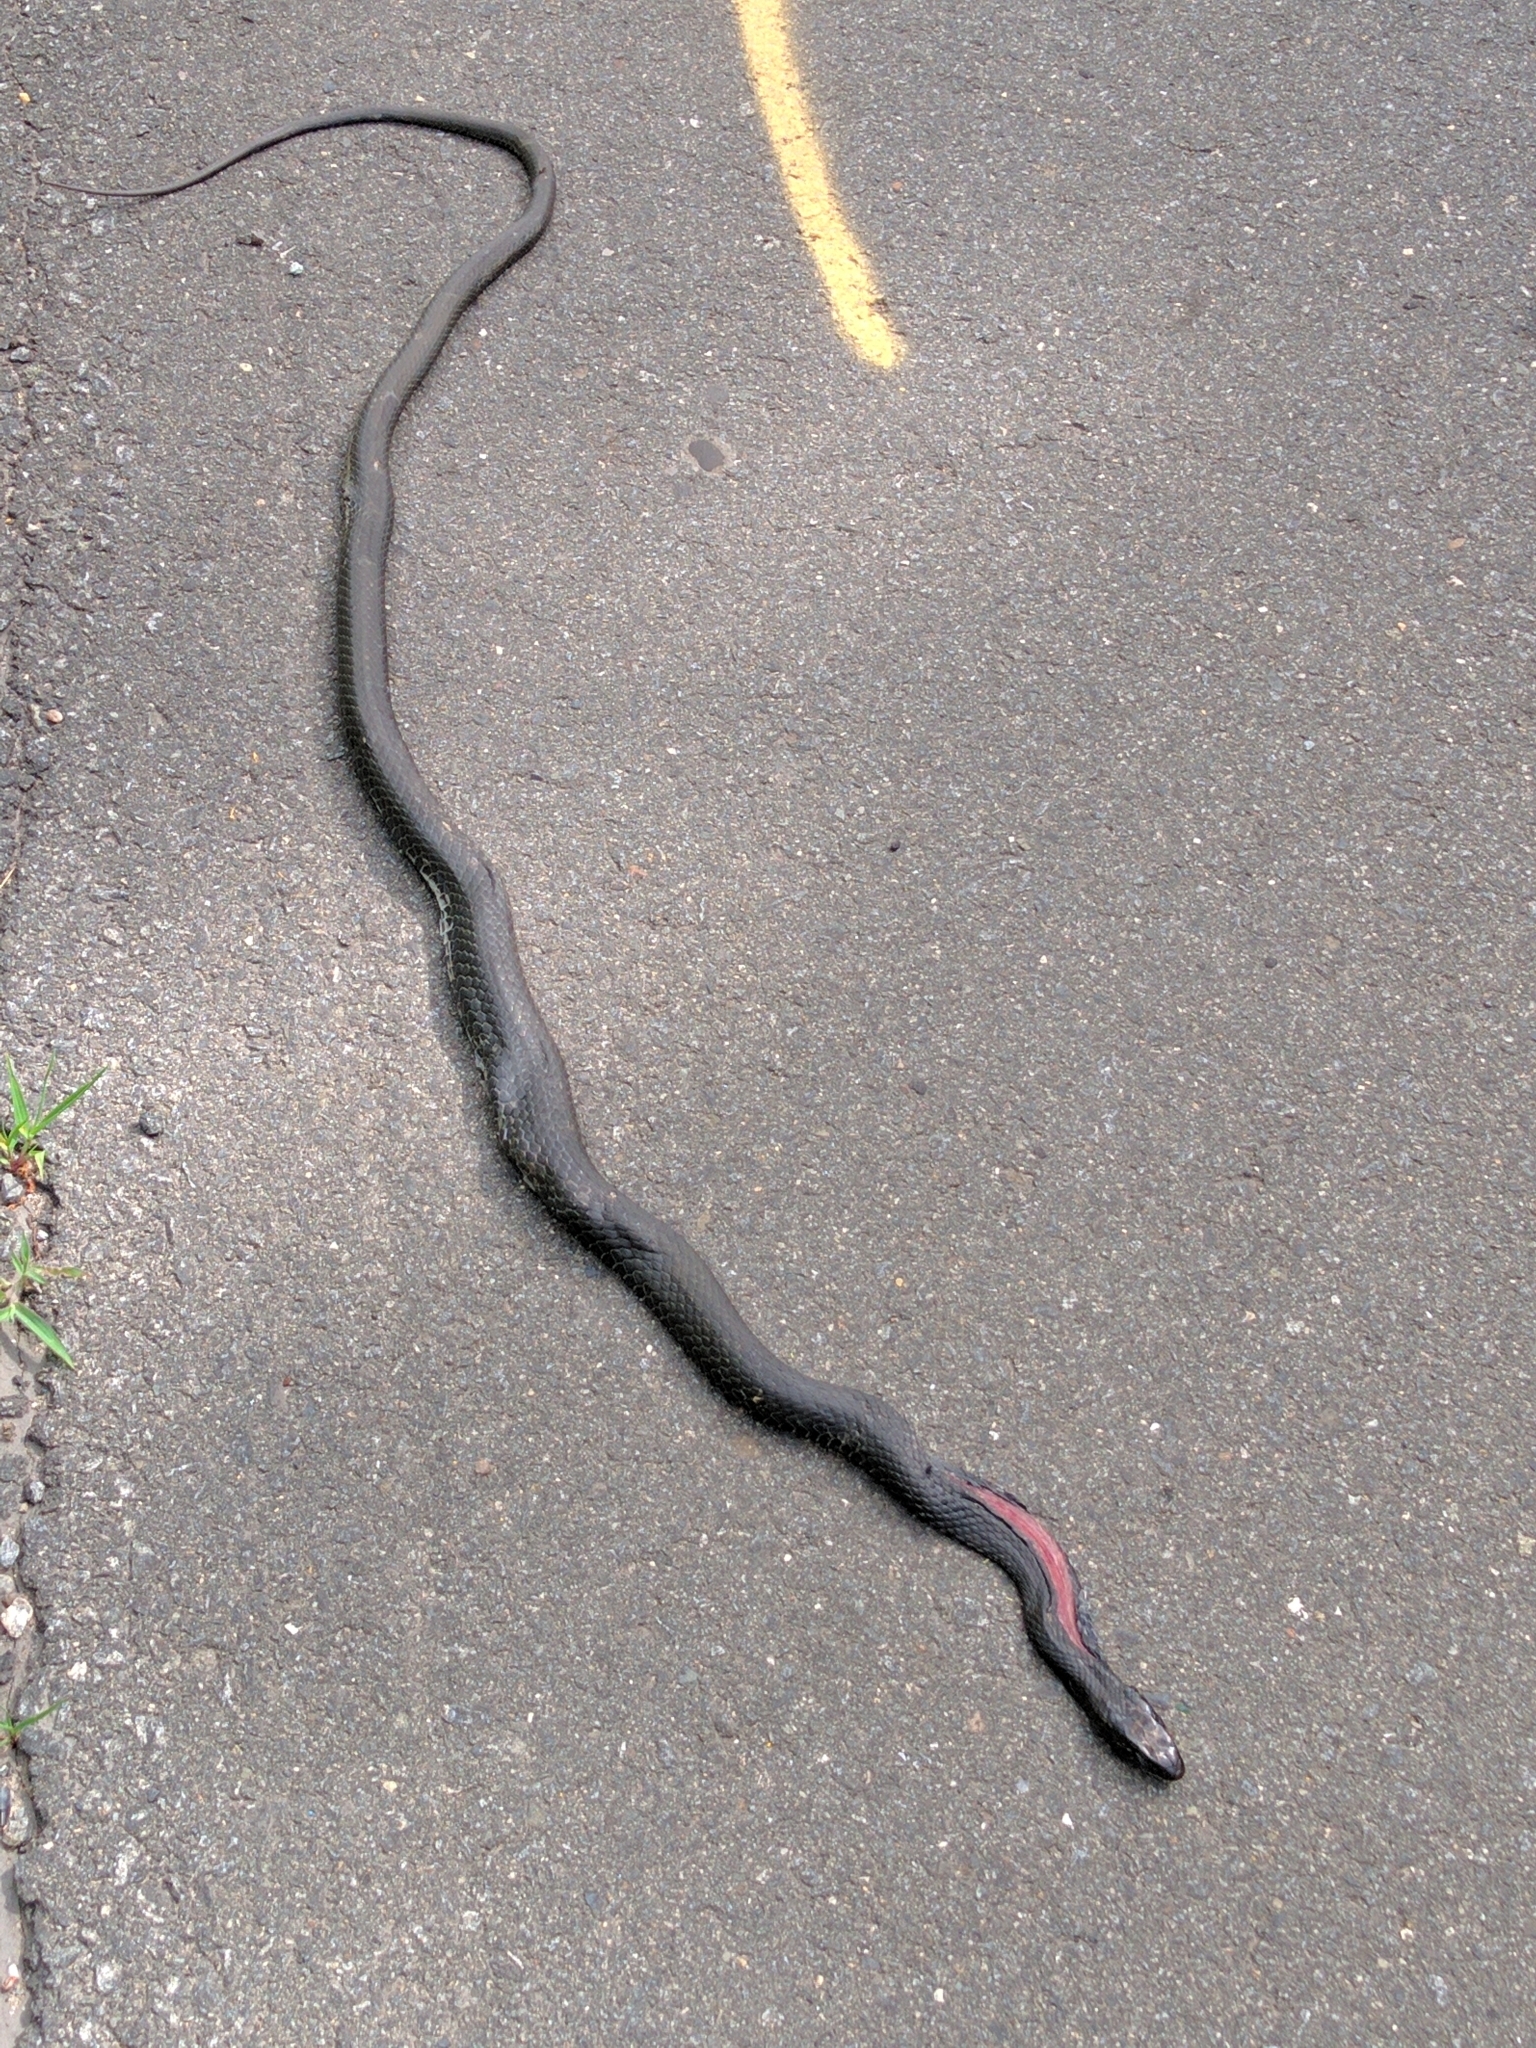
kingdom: Animalia
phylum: Chordata
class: Squamata
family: Colubridae
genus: Coluber
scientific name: Coluber constrictor
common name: Eastern racer
